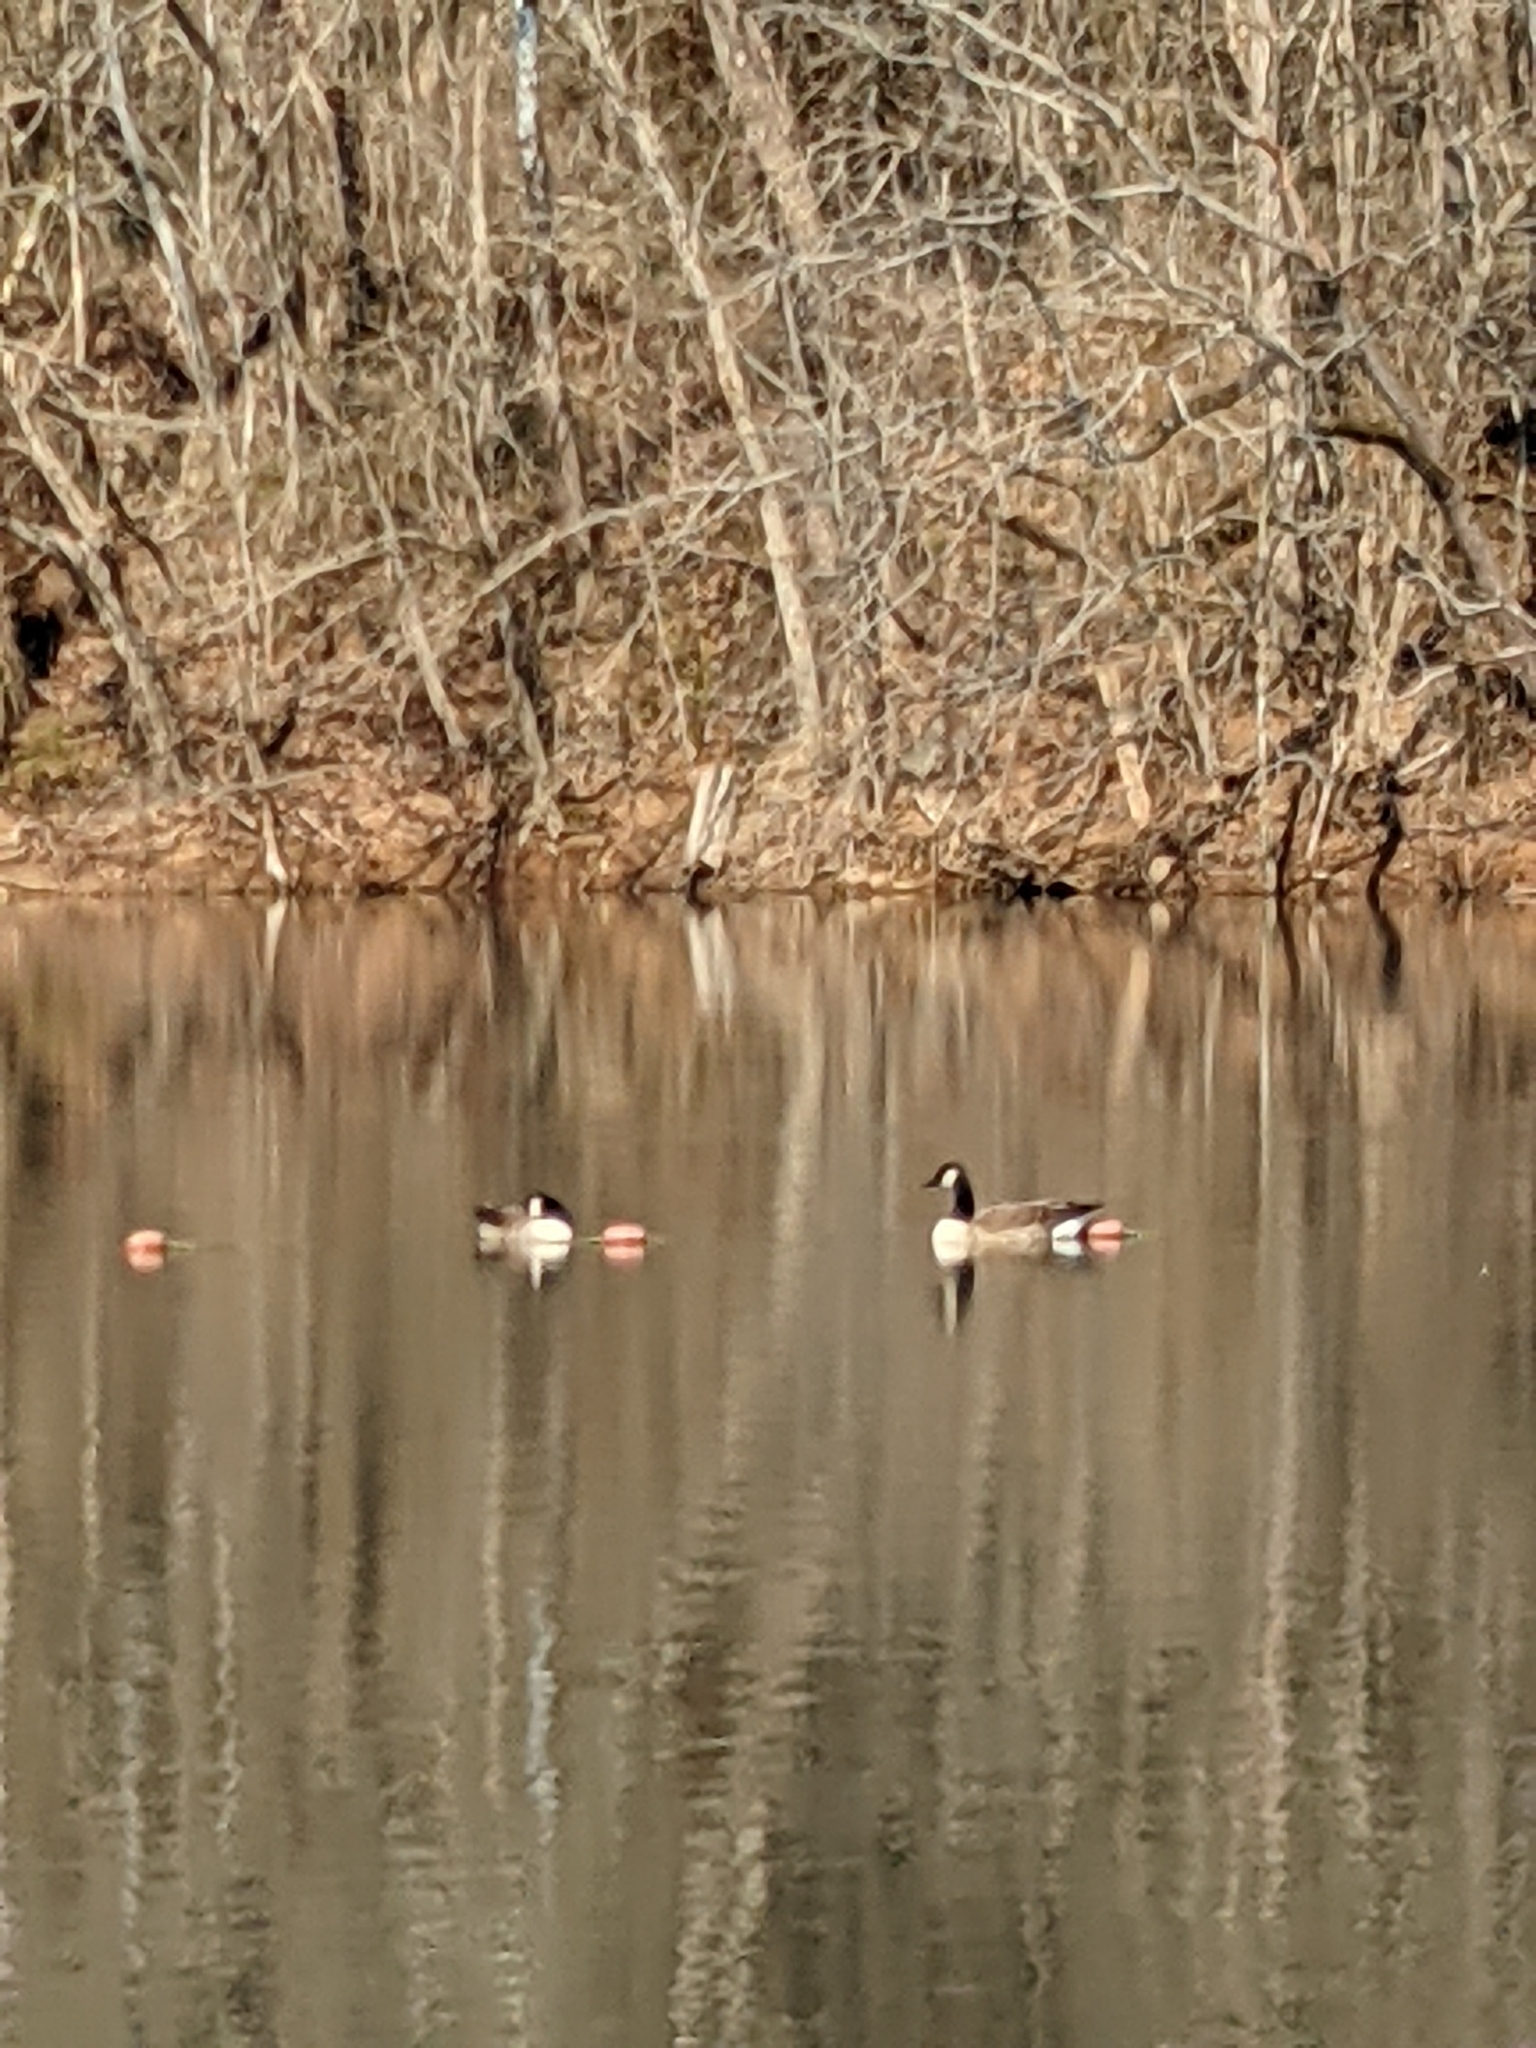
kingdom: Animalia
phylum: Chordata
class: Aves
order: Anseriformes
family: Anatidae
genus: Branta
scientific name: Branta canadensis
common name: Canada goose
